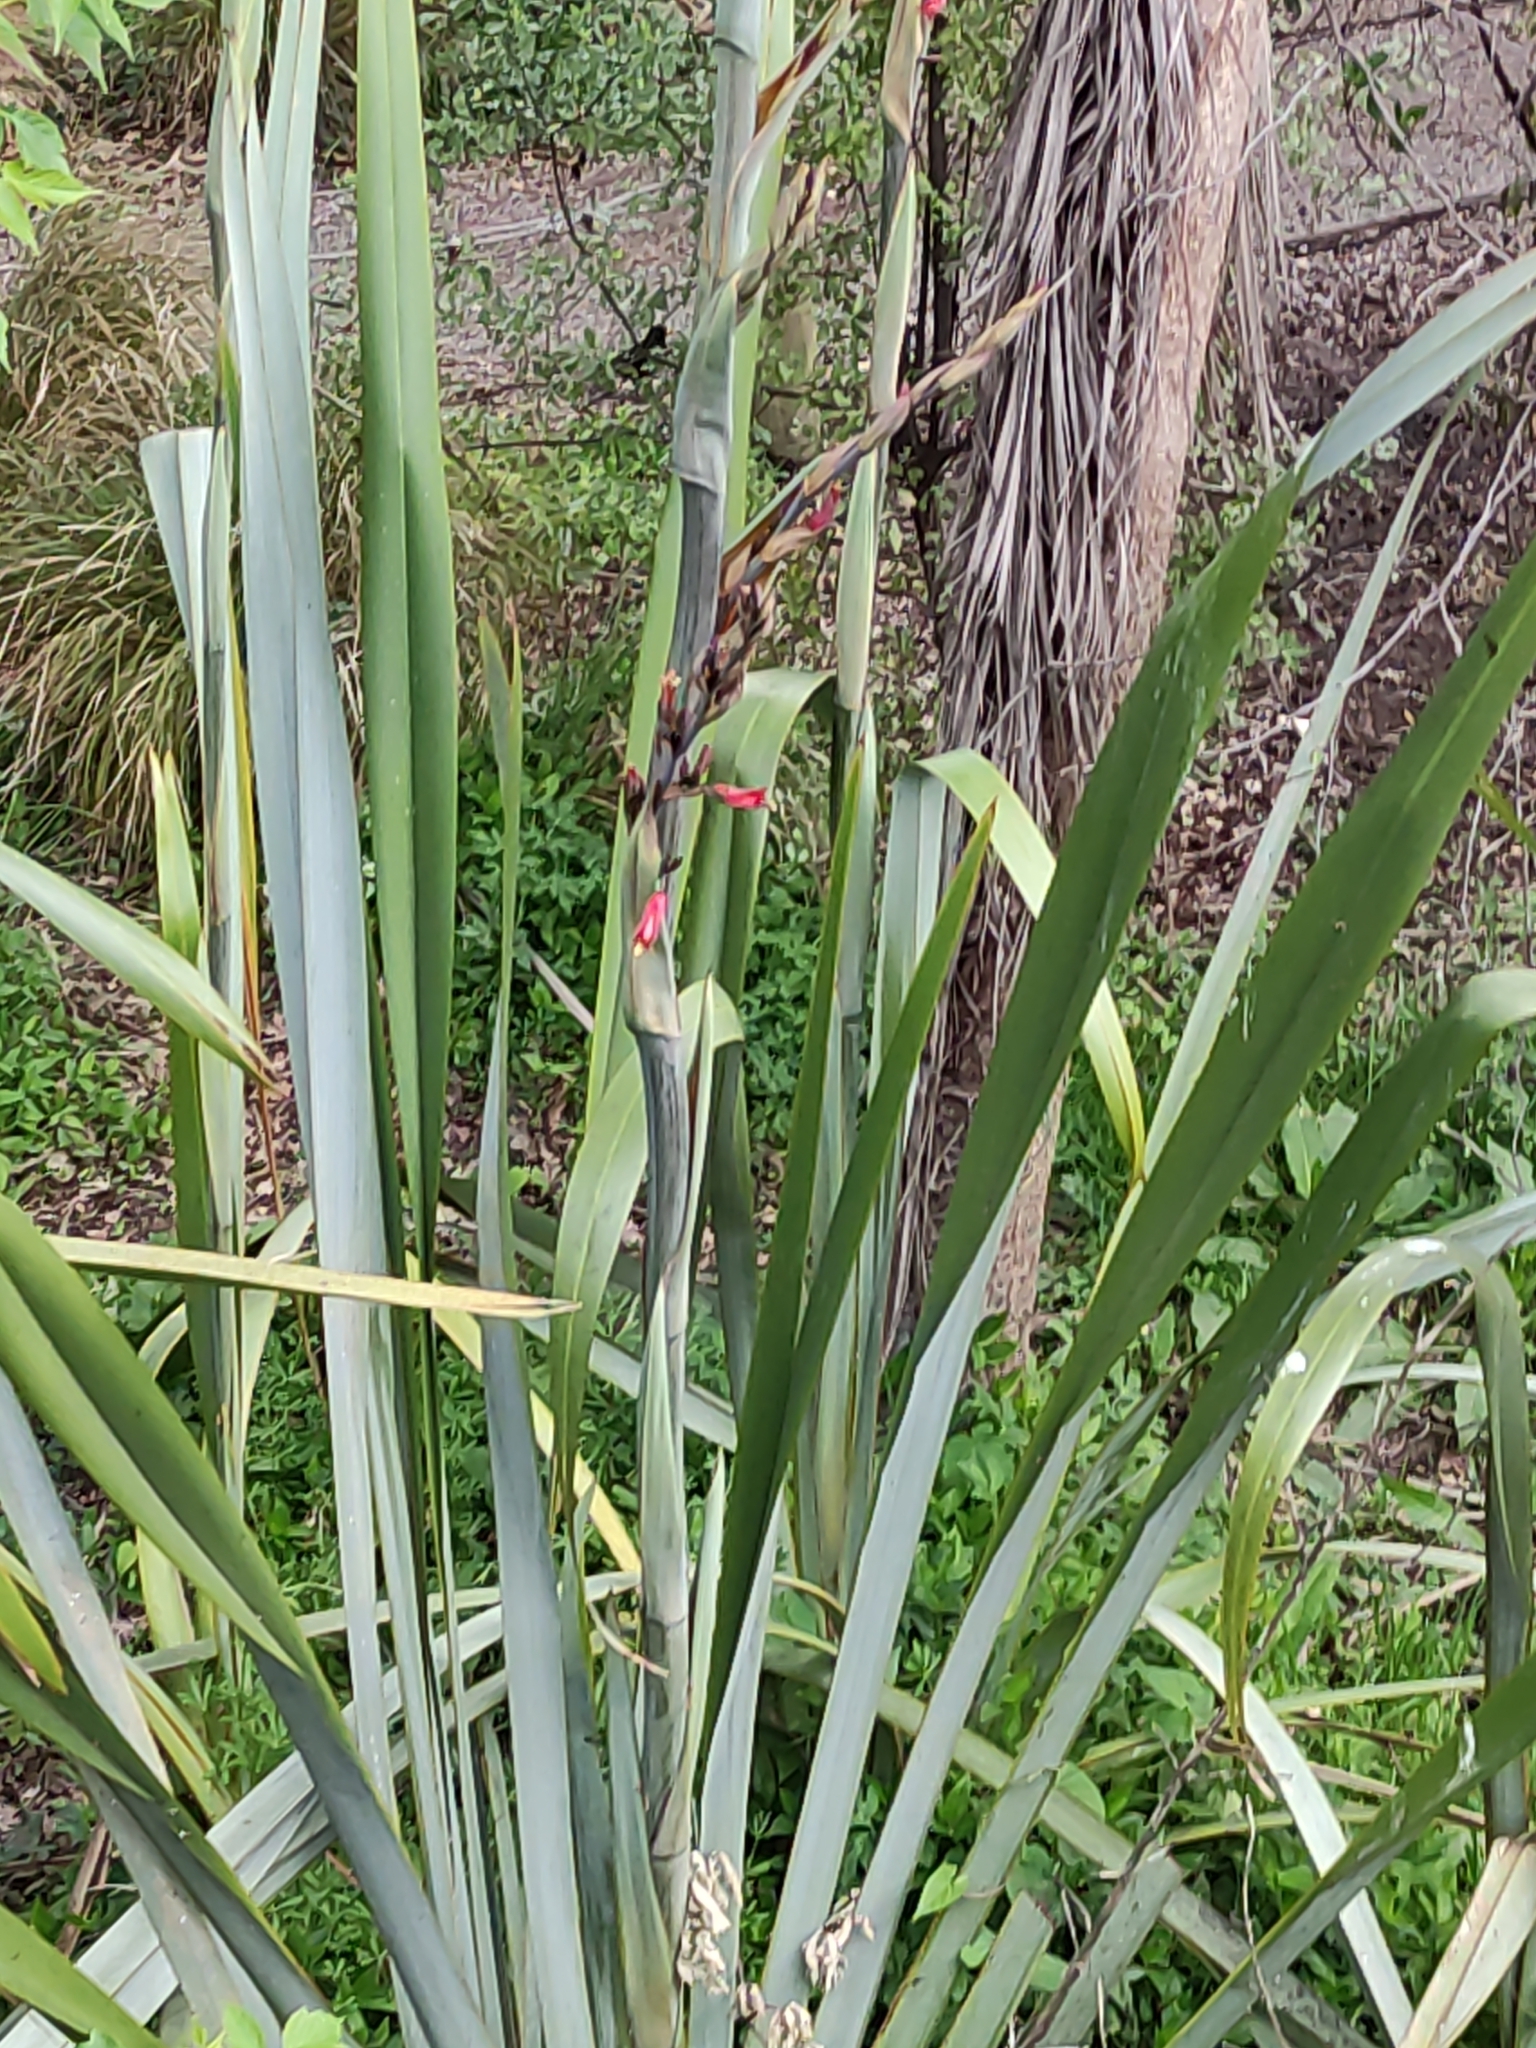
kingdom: Plantae
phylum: Tracheophyta
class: Liliopsida
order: Asparagales
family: Asphodelaceae
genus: Phormium
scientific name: Phormium tenax
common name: New zealand flax
